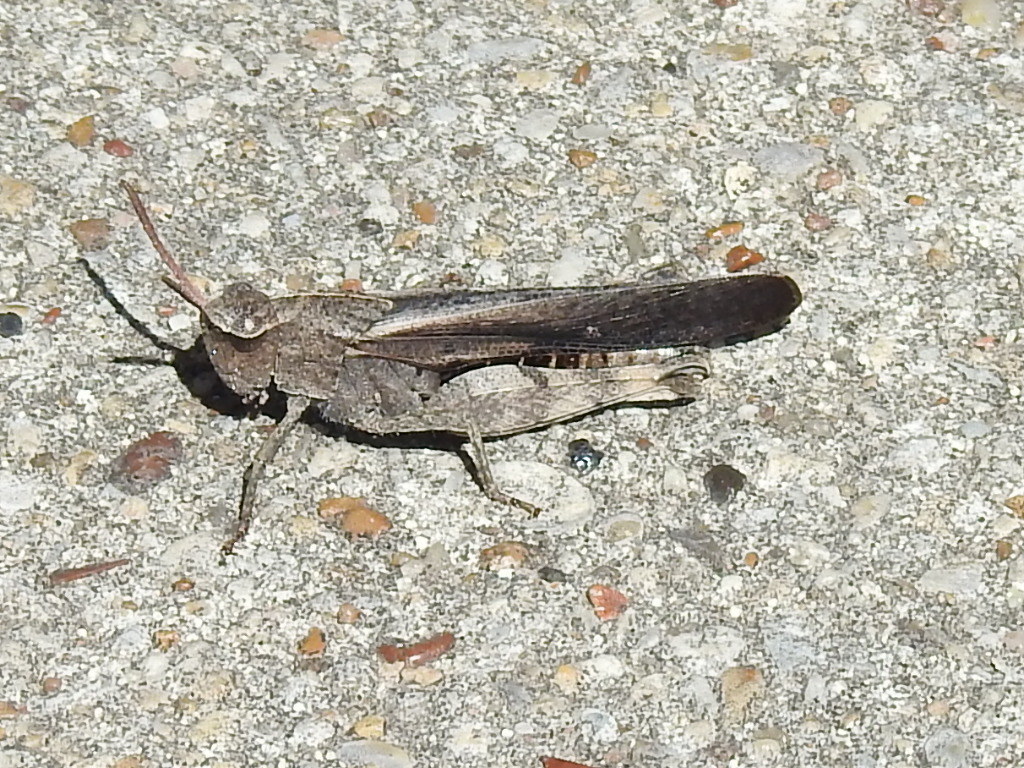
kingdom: Animalia
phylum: Arthropoda
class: Insecta
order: Orthoptera
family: Acrididae
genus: Chortophaga
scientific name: Chortophaga viridifasciata
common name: Green-striped grasshopper
